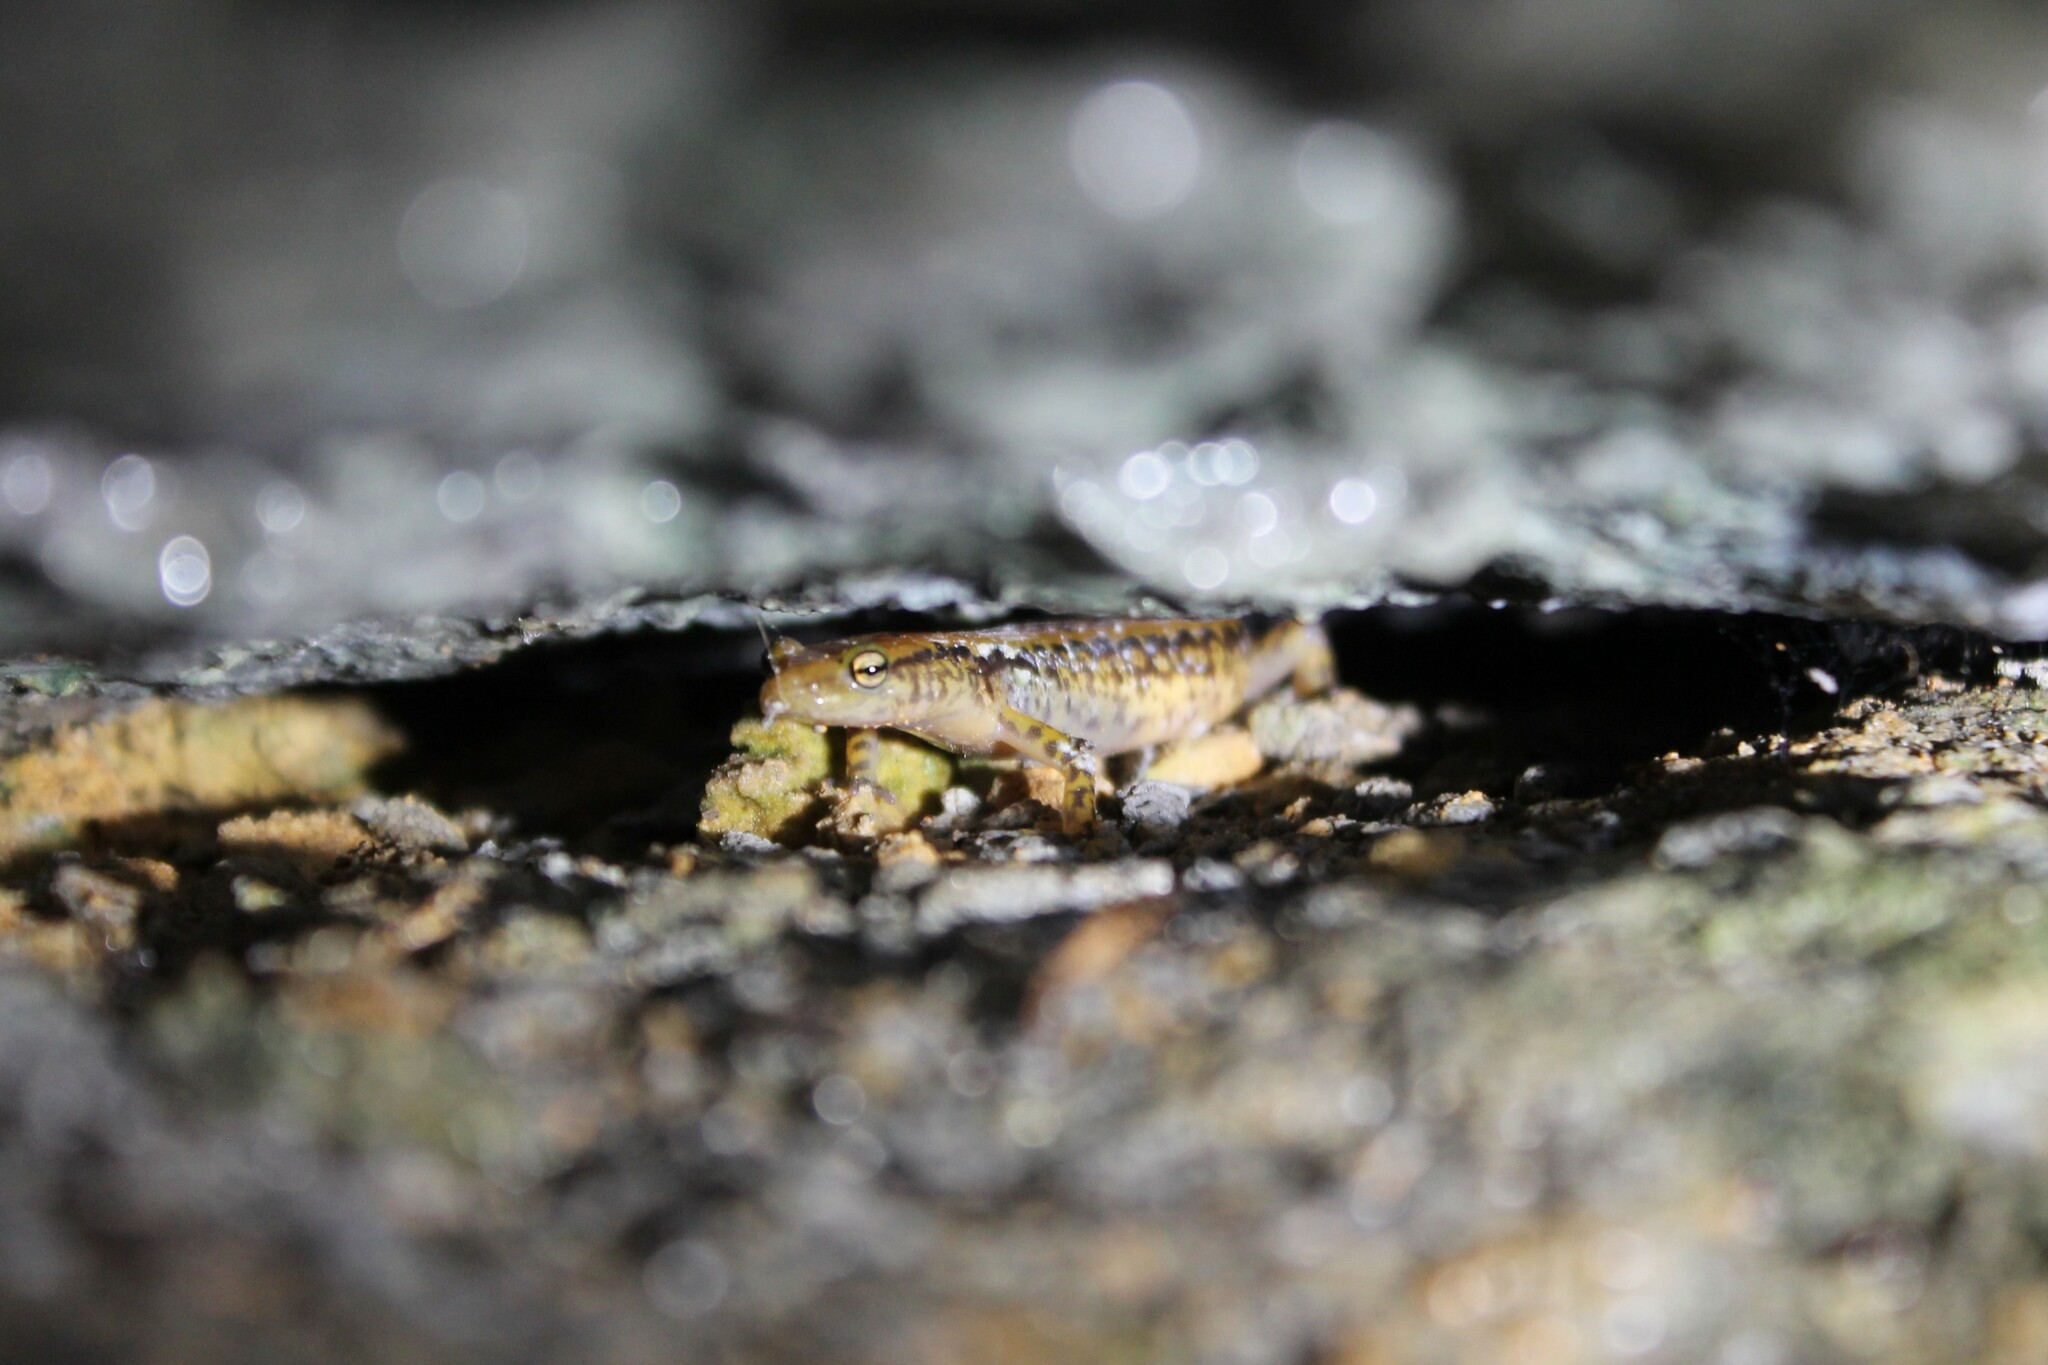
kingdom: Animalia
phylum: Chordata
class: Amphibia
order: Caudata
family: Plethodontidae
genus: Eurycea
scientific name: Eurycea longicauda
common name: Long-tailed salamander
